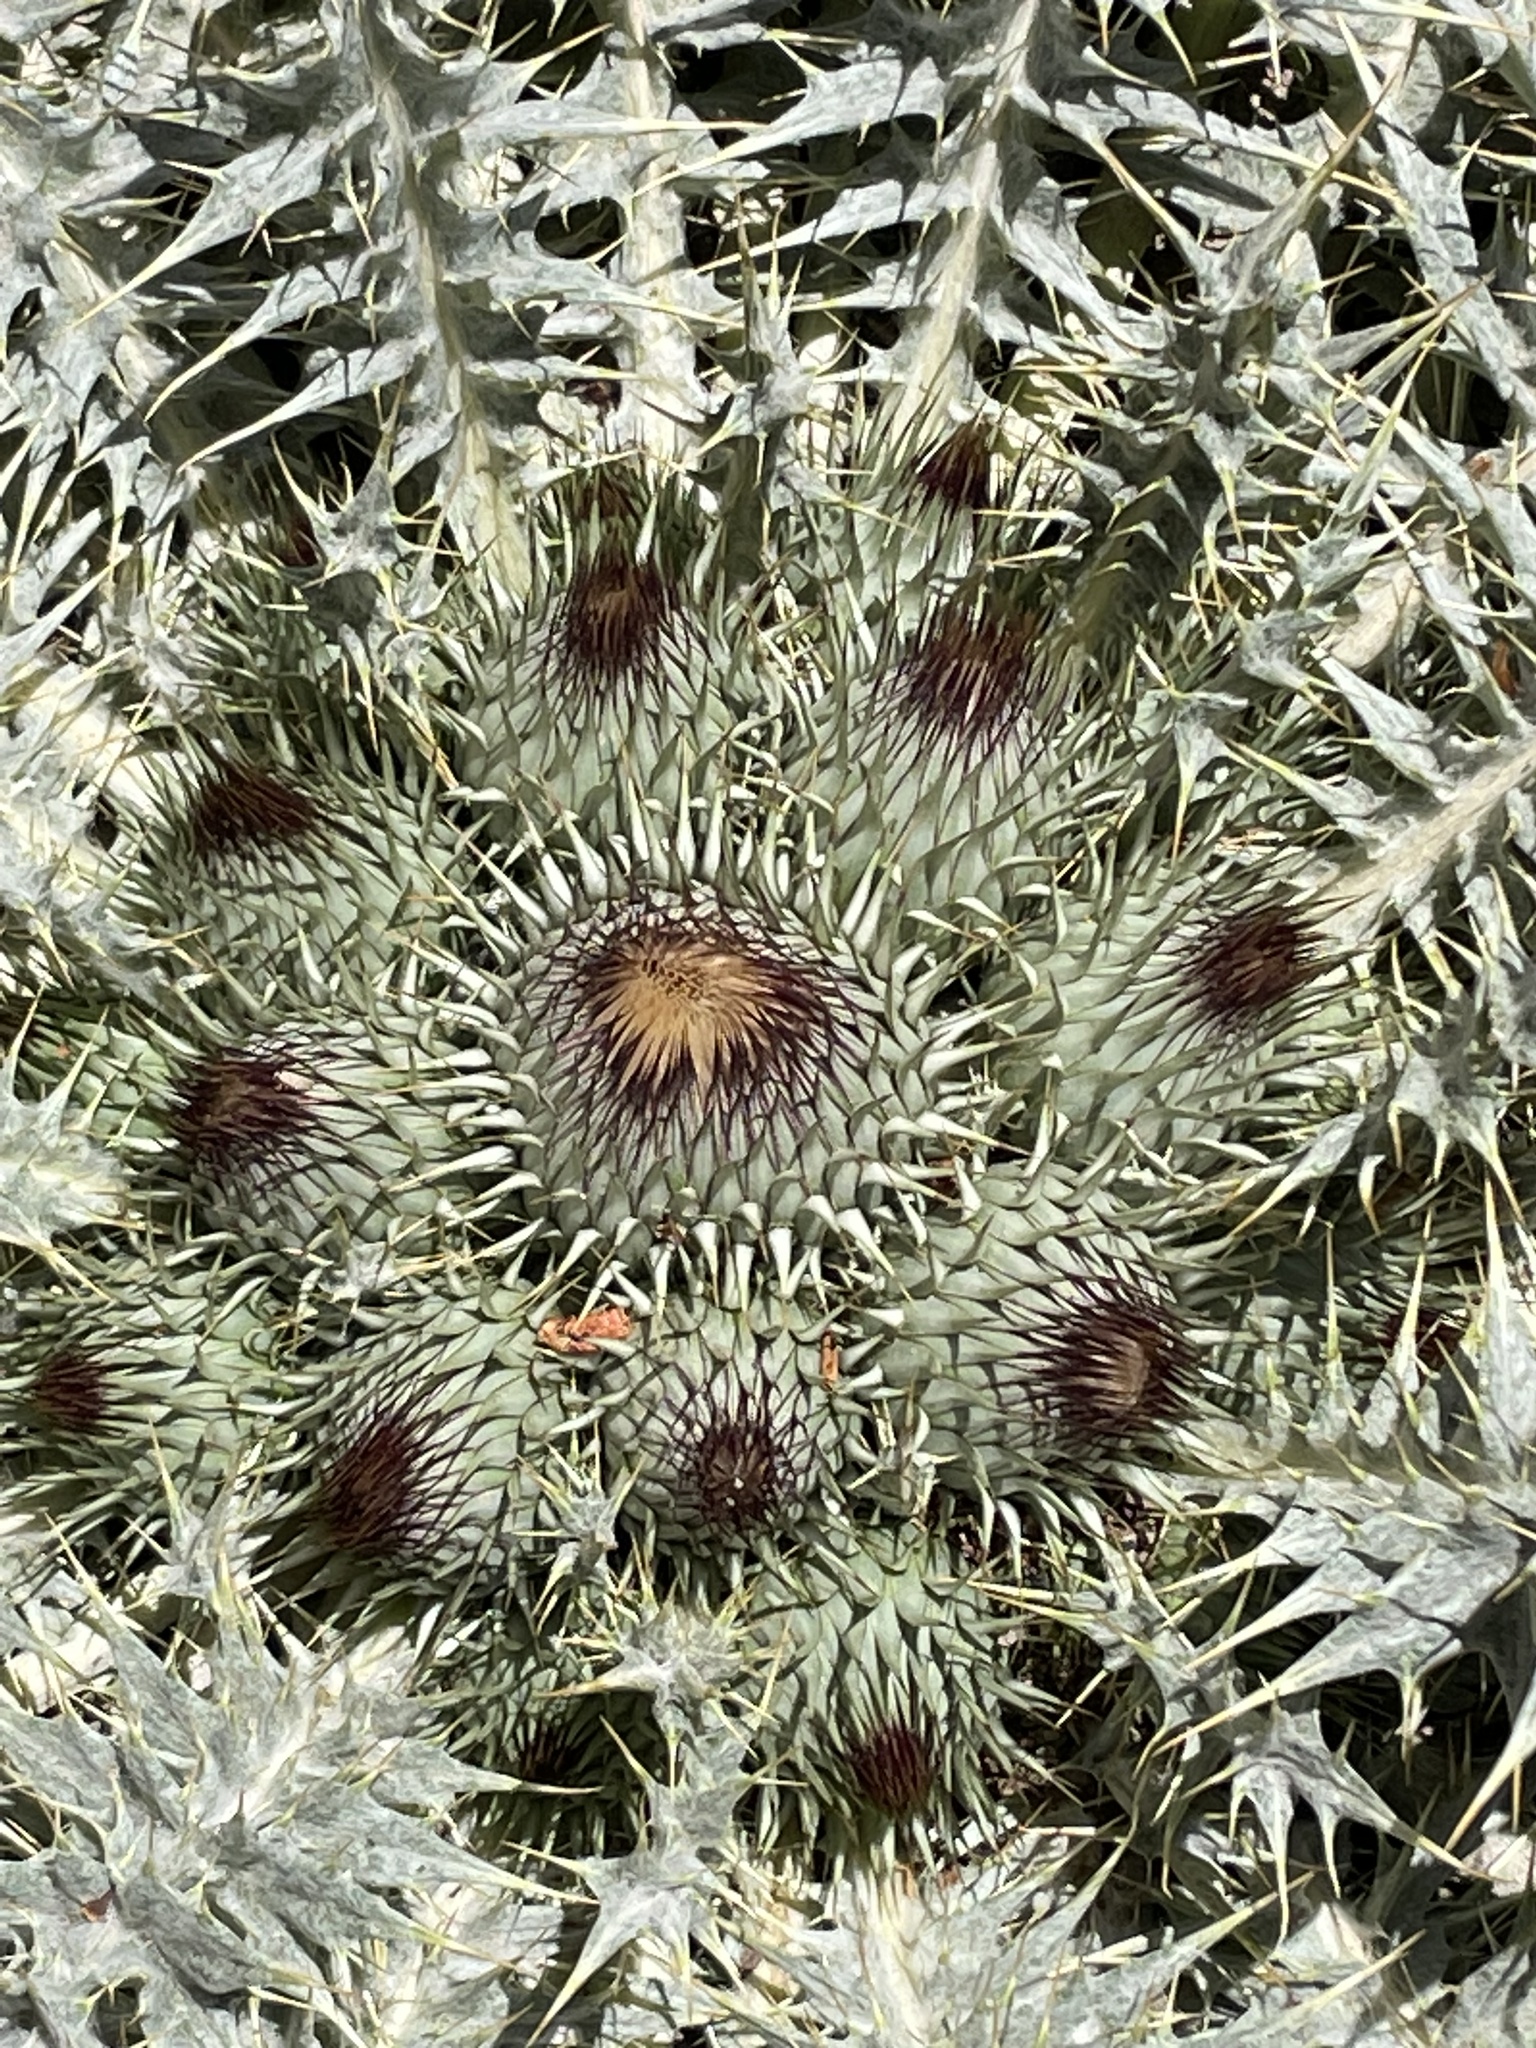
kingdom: Plantae
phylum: Tracheophyta
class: Magnoliopsida
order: Asterales
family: Asteraceae
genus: Onopordum
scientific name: Onopordum acaulon
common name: Horse thistle
